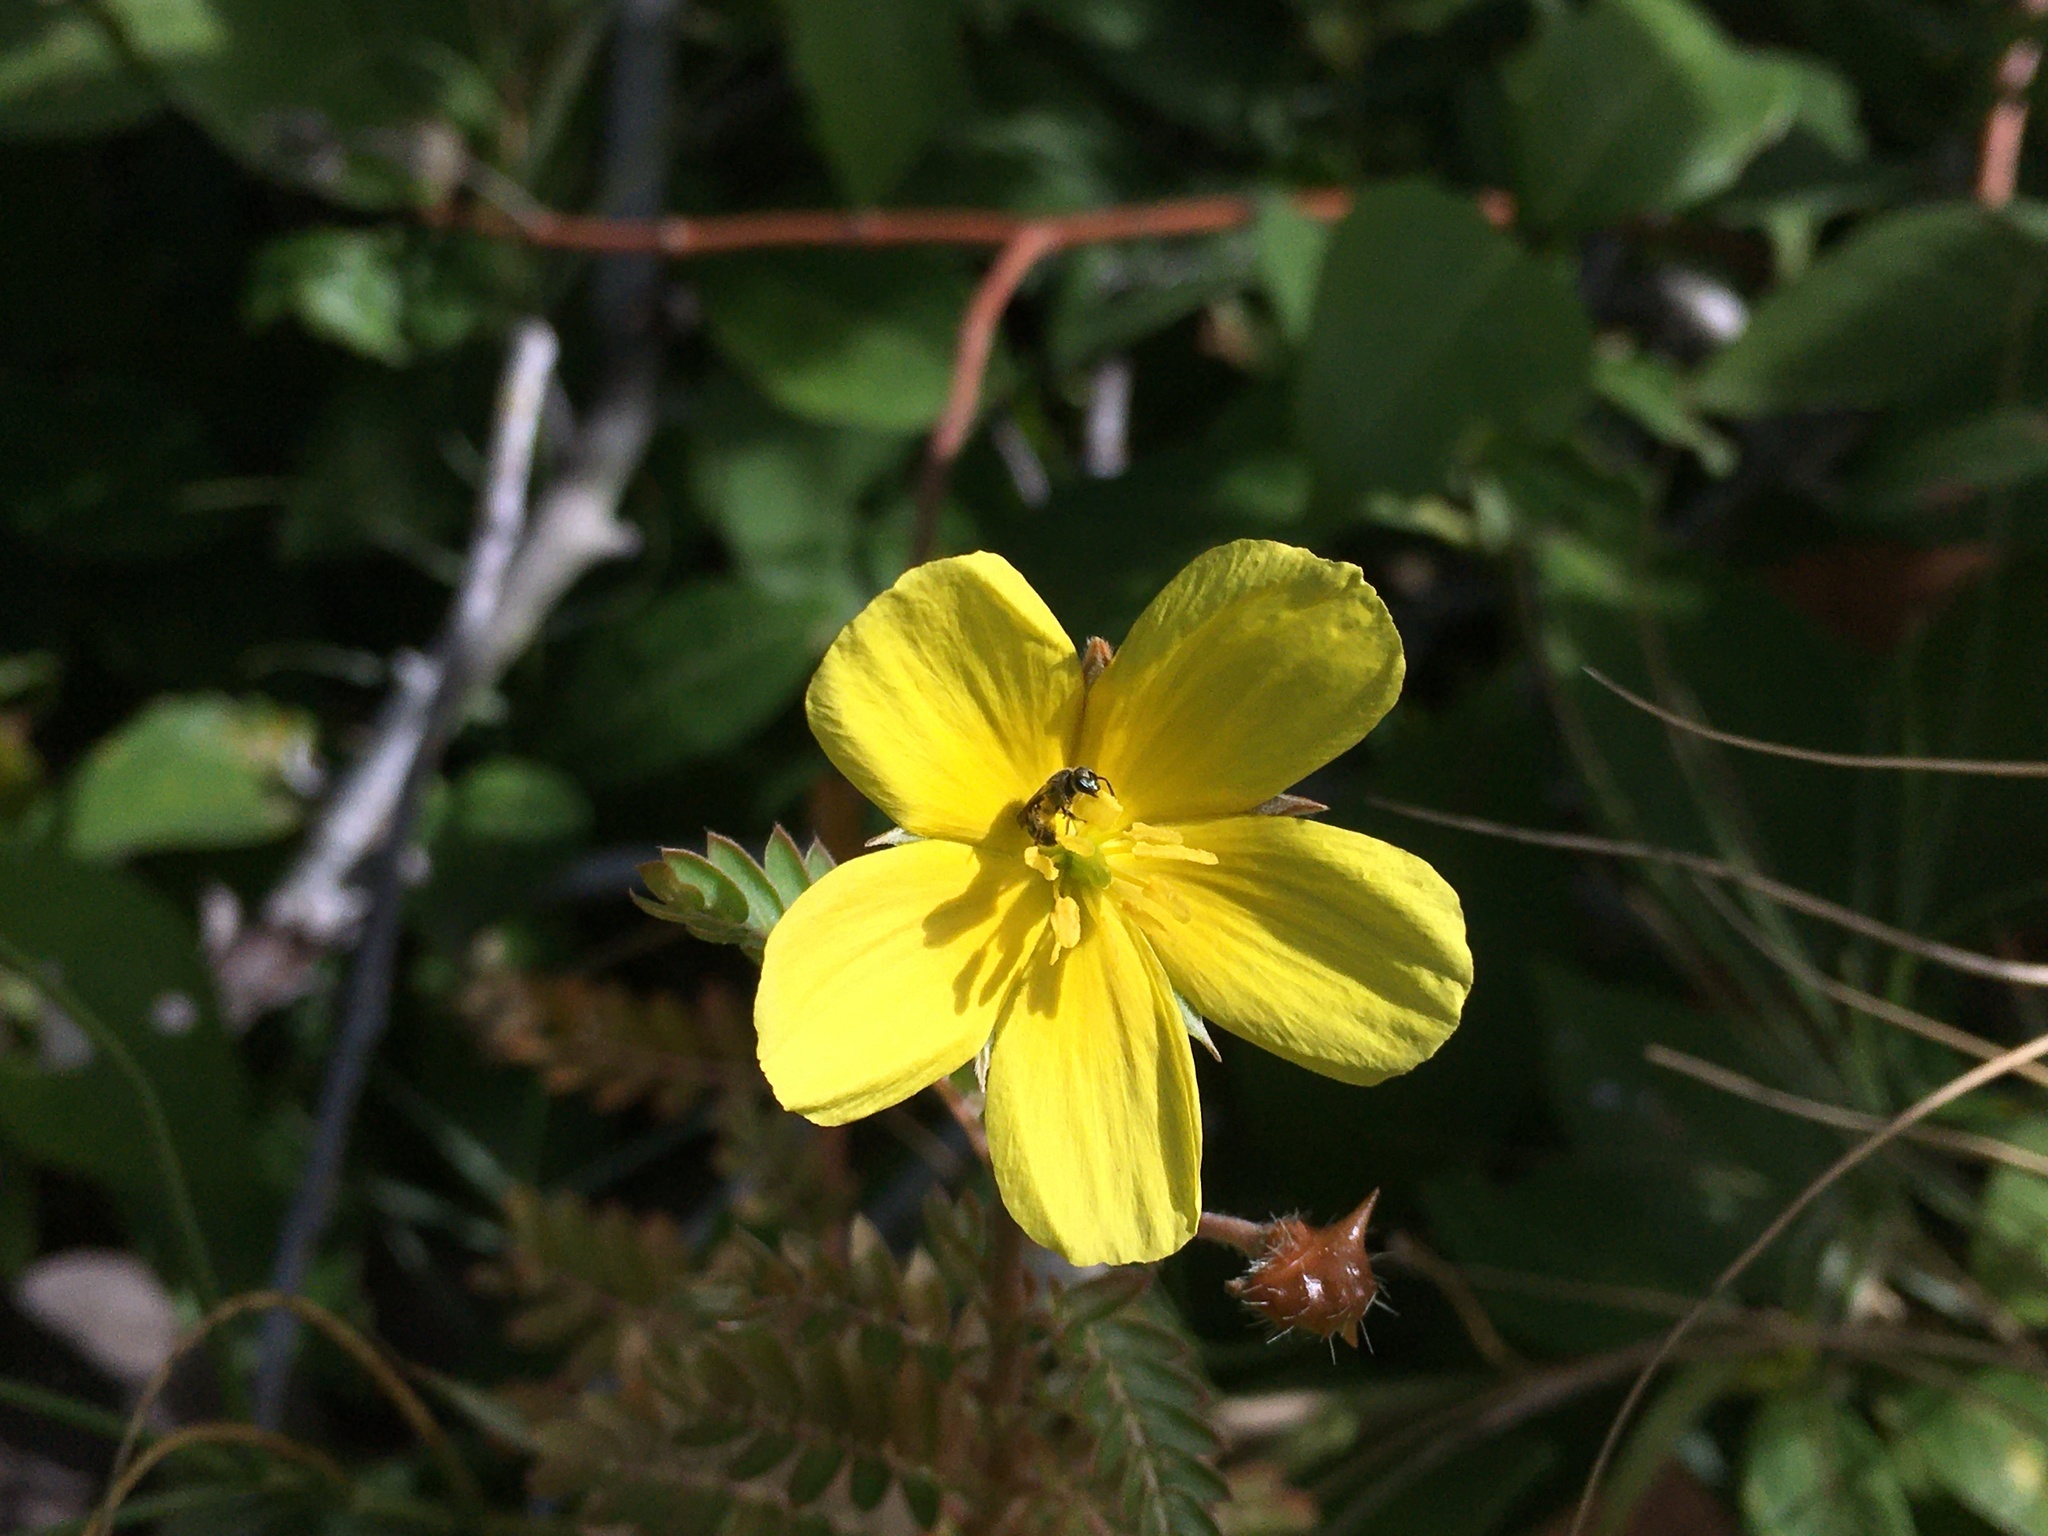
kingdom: Plantae
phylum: Tracheophyta
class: Magnoliopsida
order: Zygophyllales
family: Zygophyllaceae
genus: Tribulus
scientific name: Tribulus cistoides
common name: Jamaican feverplant
